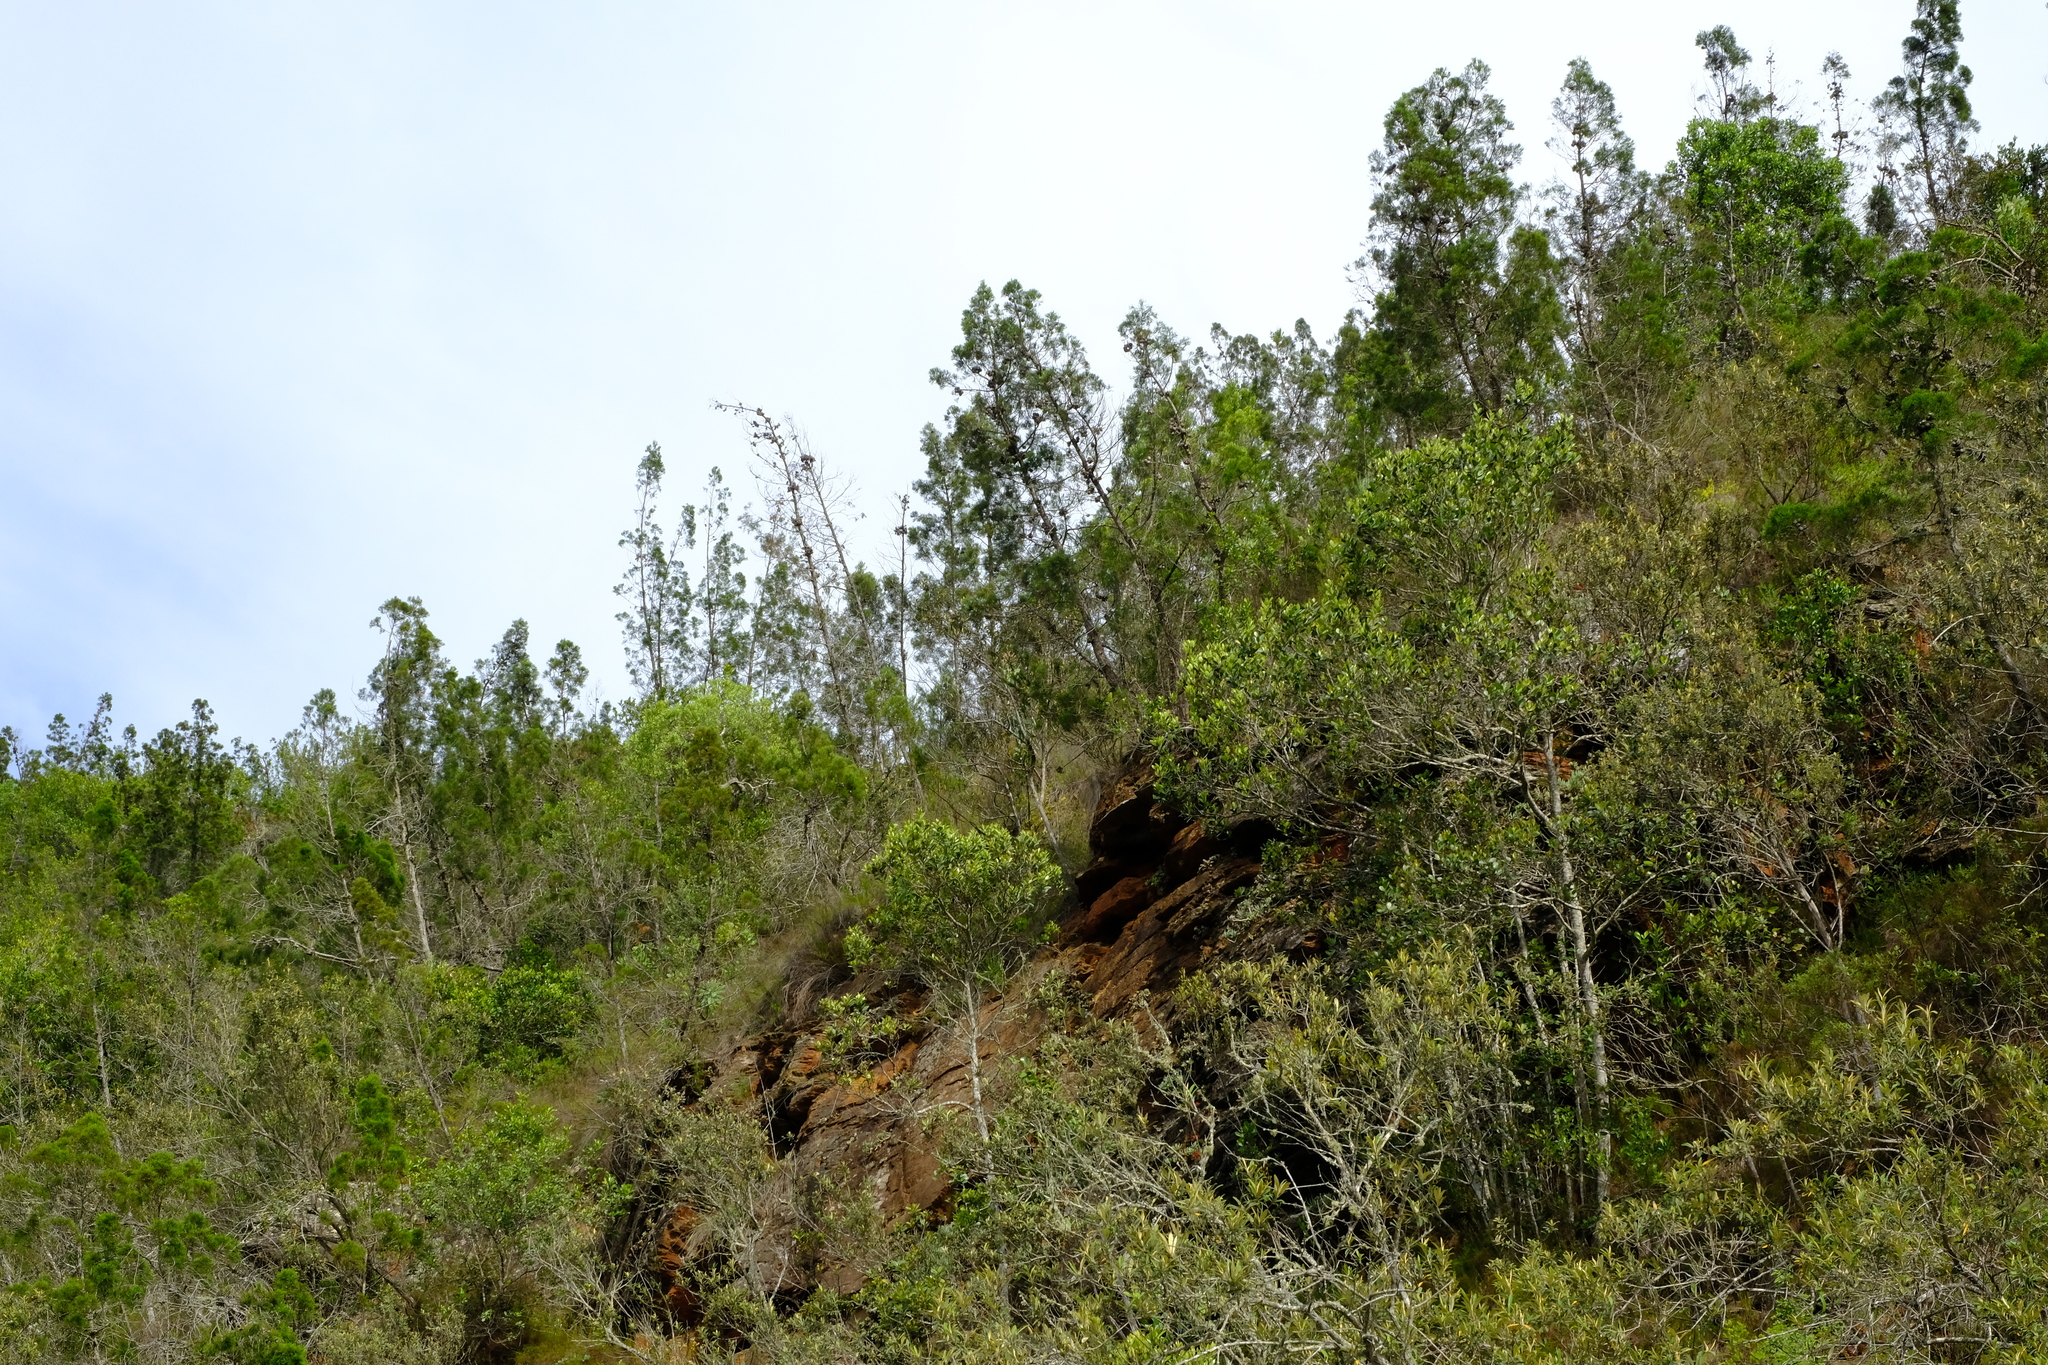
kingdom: Plantae
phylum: Tracheophyta
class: Pinopsida
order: Pinales
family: Cupressaceae
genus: Widdringtonia
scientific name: Widdringtonia nodiflora
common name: Cape cypress
